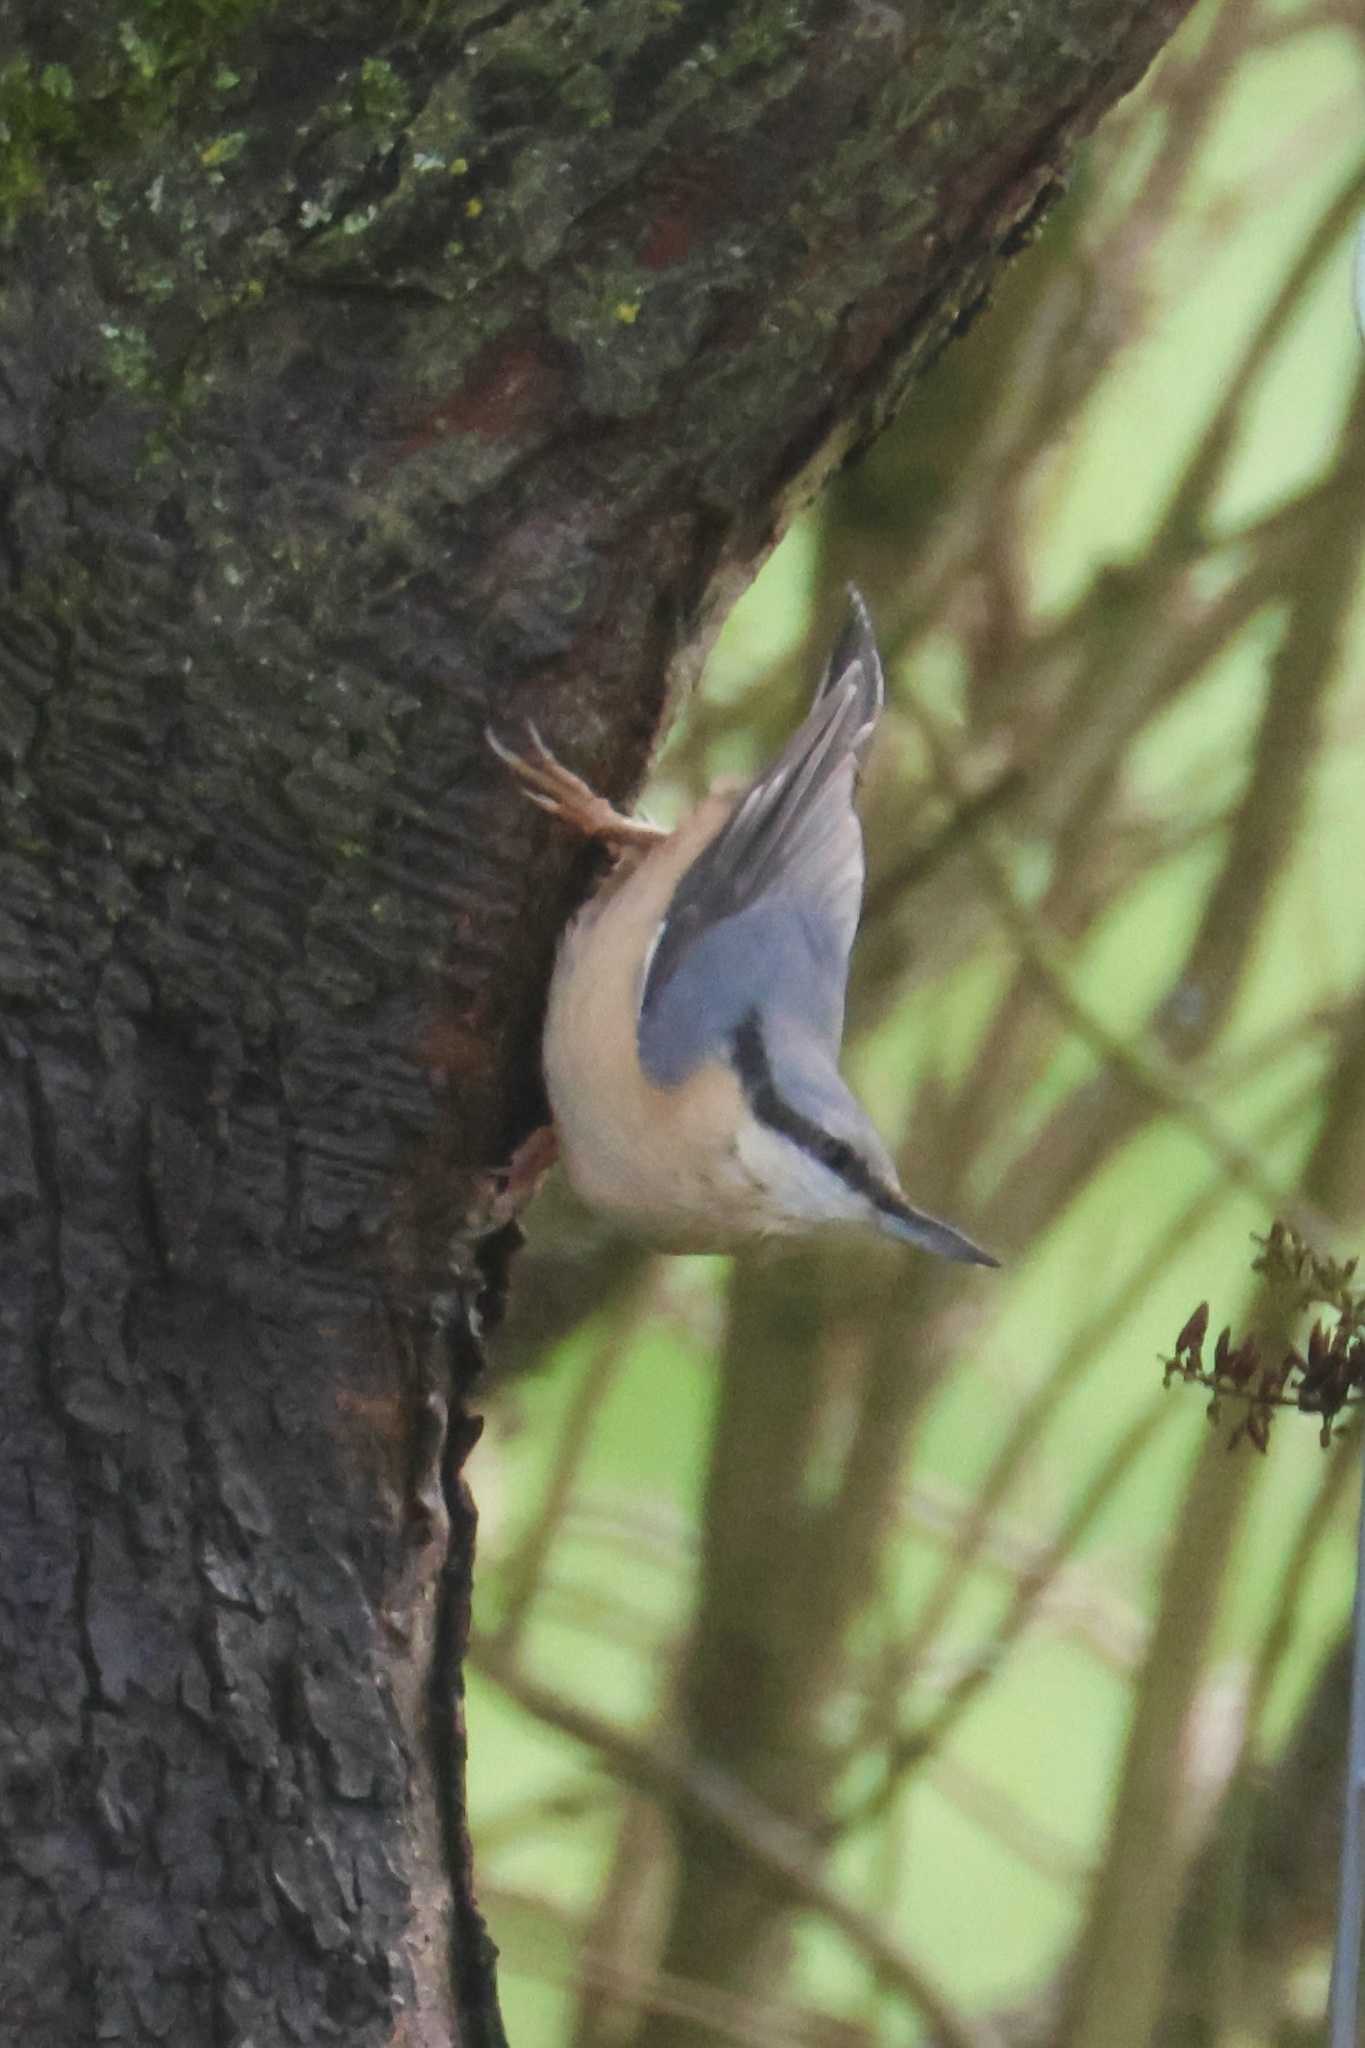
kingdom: Animalia
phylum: Chordata
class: Aves
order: Passeriformes
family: Sittidae
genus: Sitta
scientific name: Sitta europaea
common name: Eurasian nuthatch
